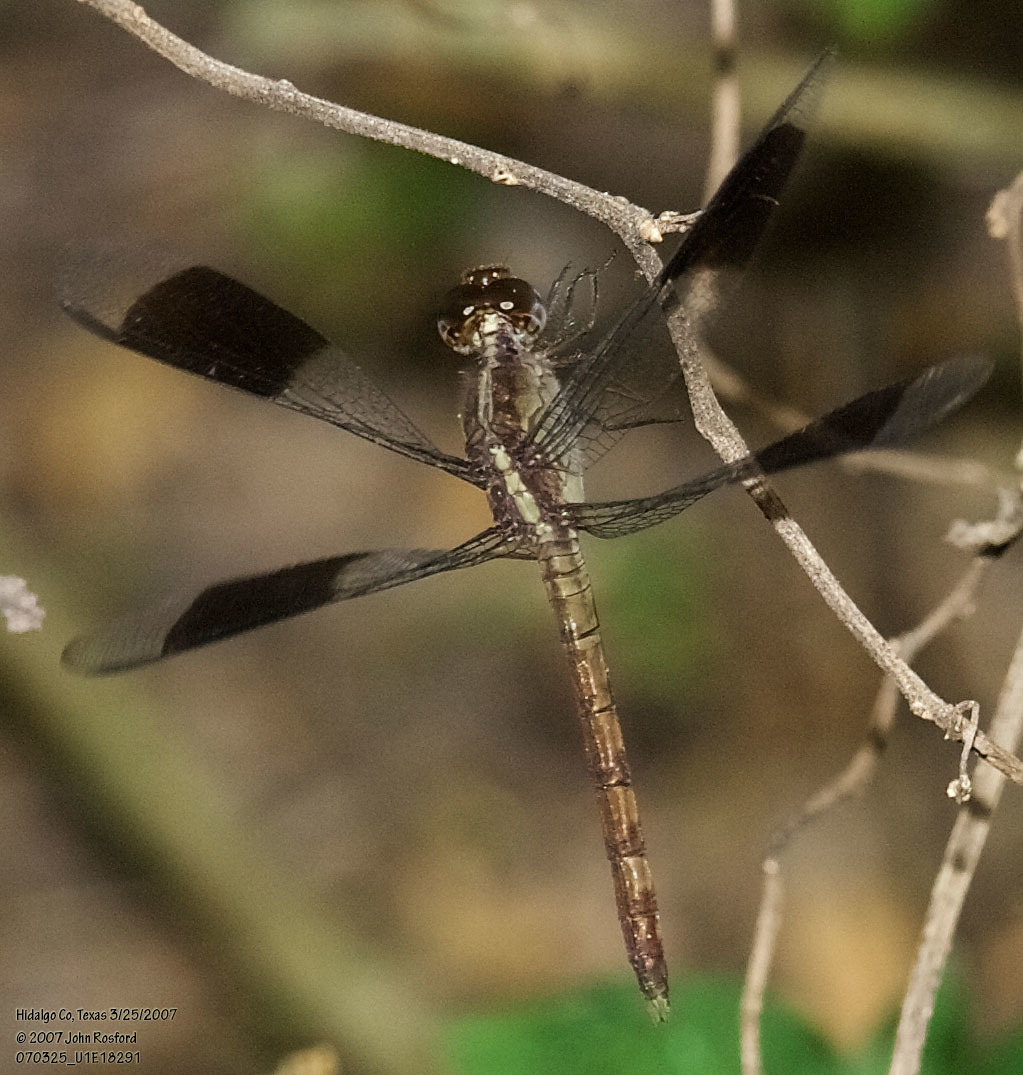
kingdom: Animalia
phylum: Arthropoda
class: Insecta
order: Odonata
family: Libellulidae
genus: Erythrodiplax
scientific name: Erythrodiplax umbrata
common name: Band-winged dragonlet
